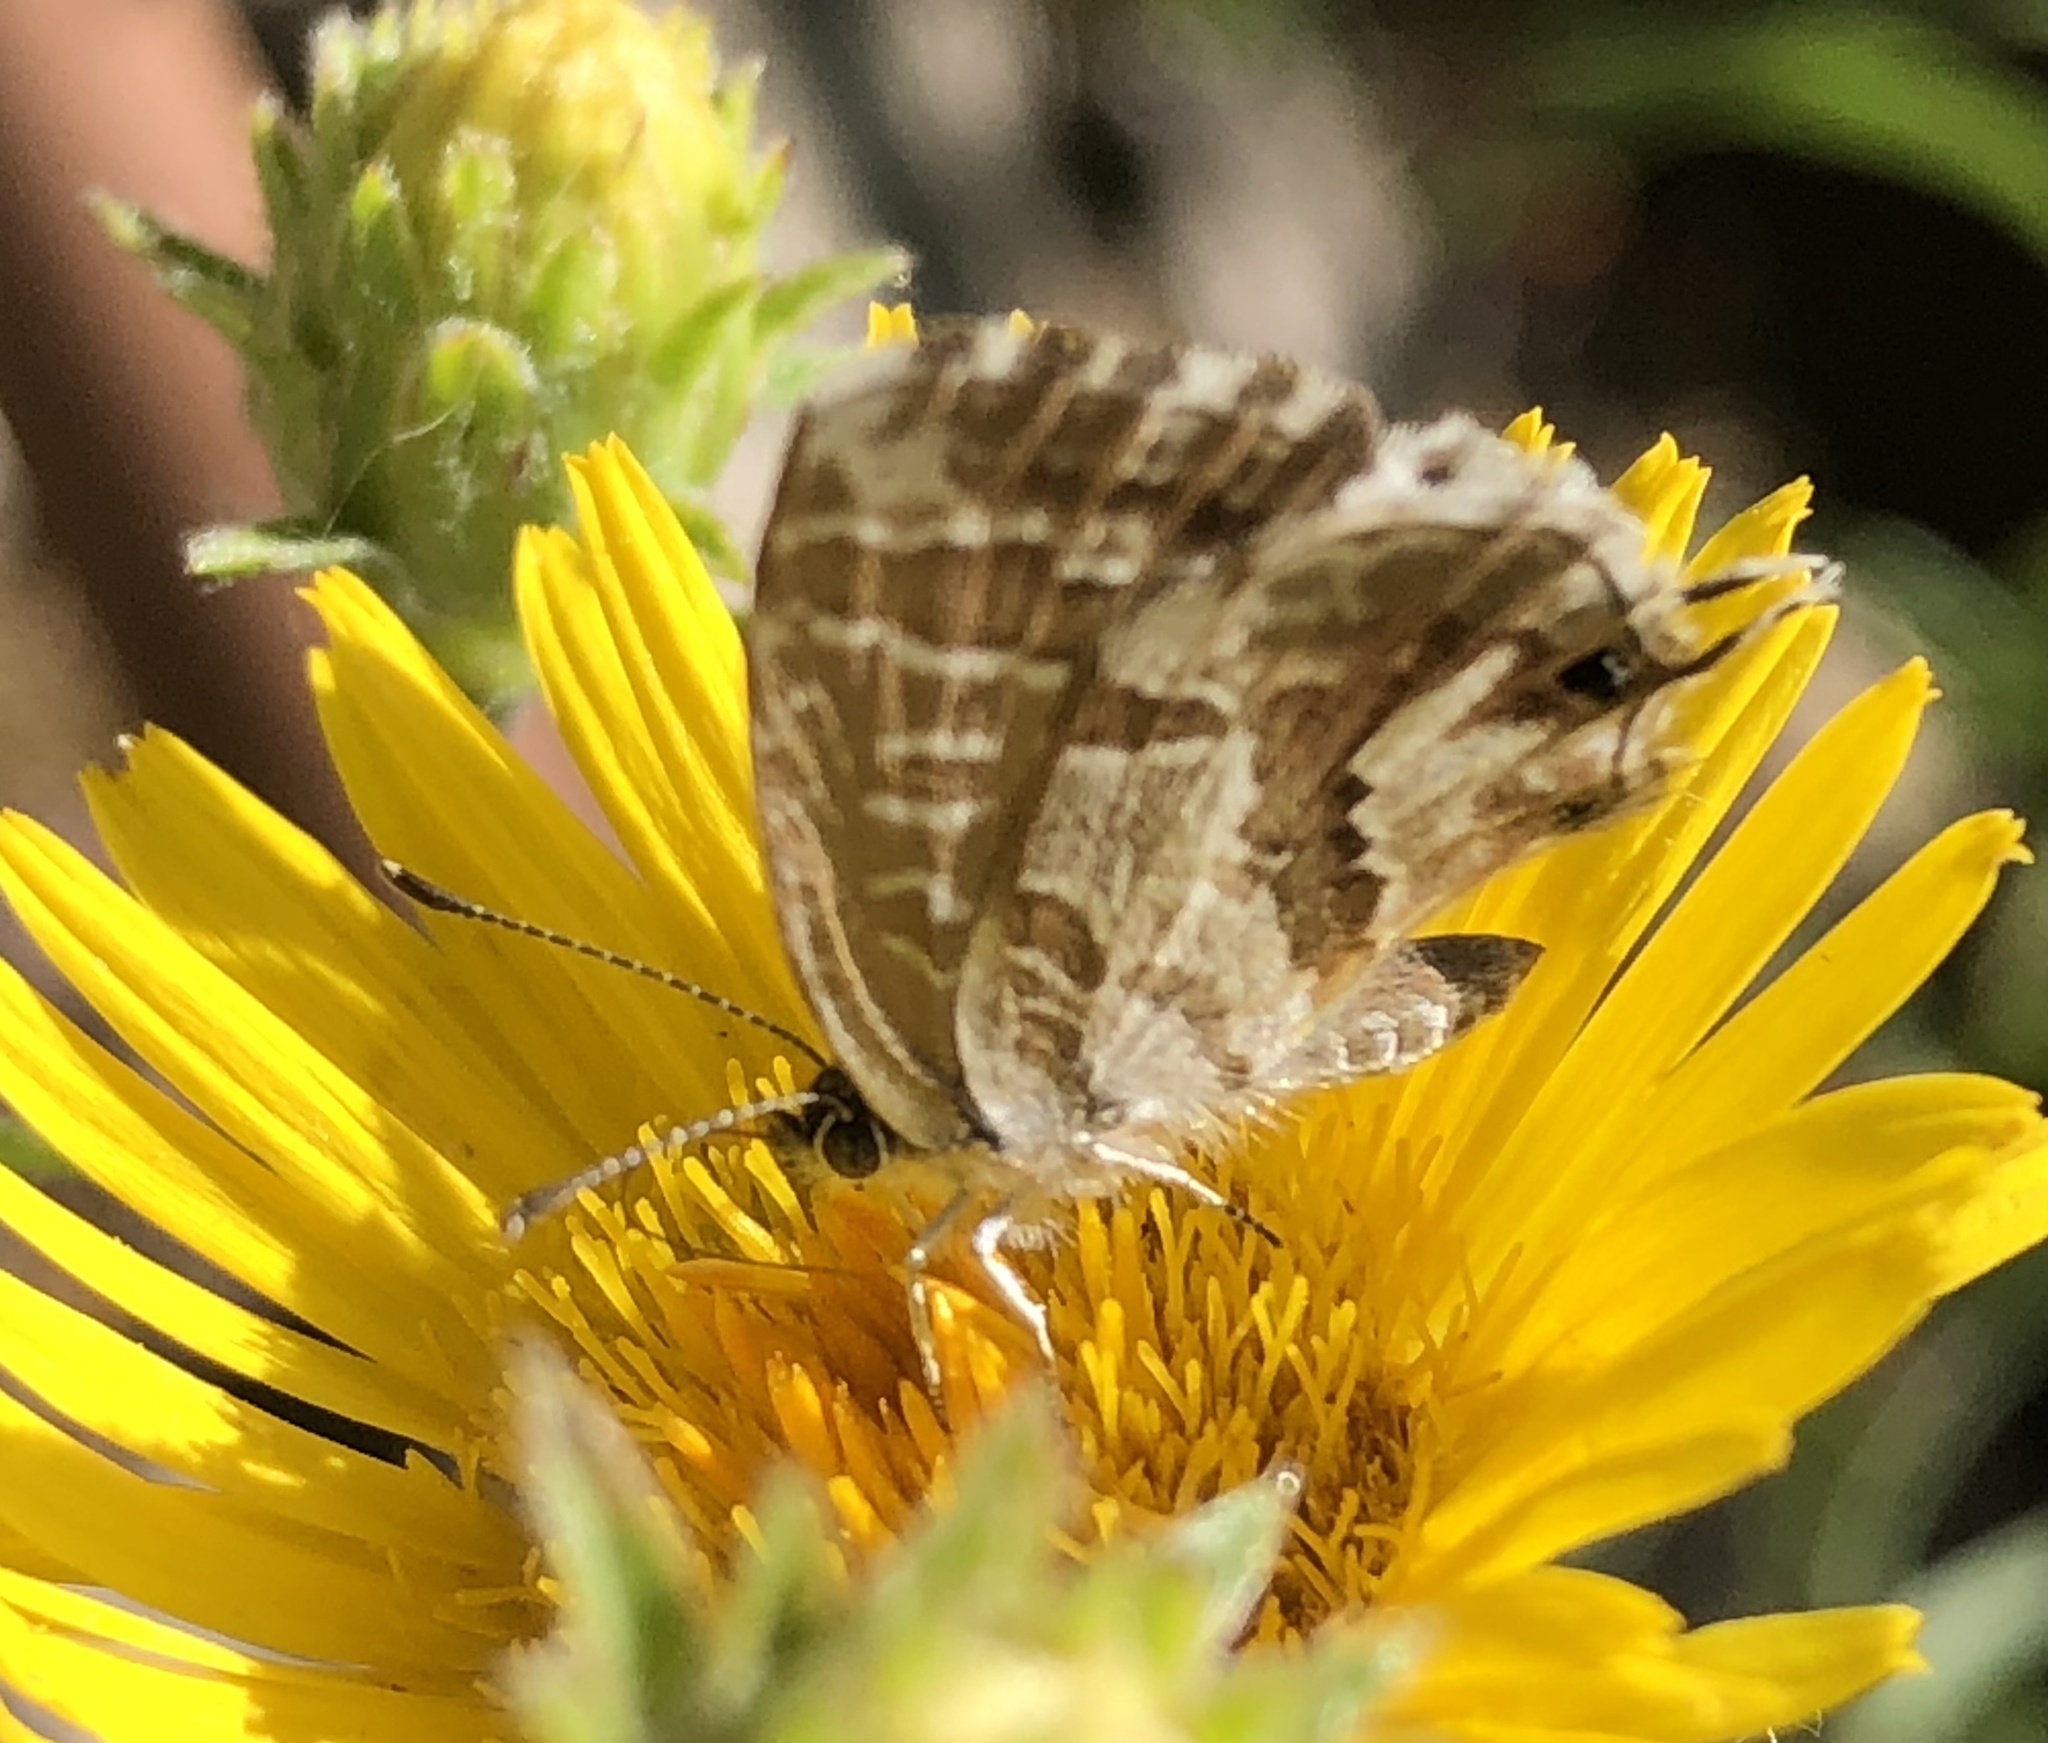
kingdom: Animalia
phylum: Arthropoda
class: Insecta
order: Lepidoptera
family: Lycaenidae
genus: Cacyreus
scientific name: Cacyreus marshalli
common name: Geranium bronze
